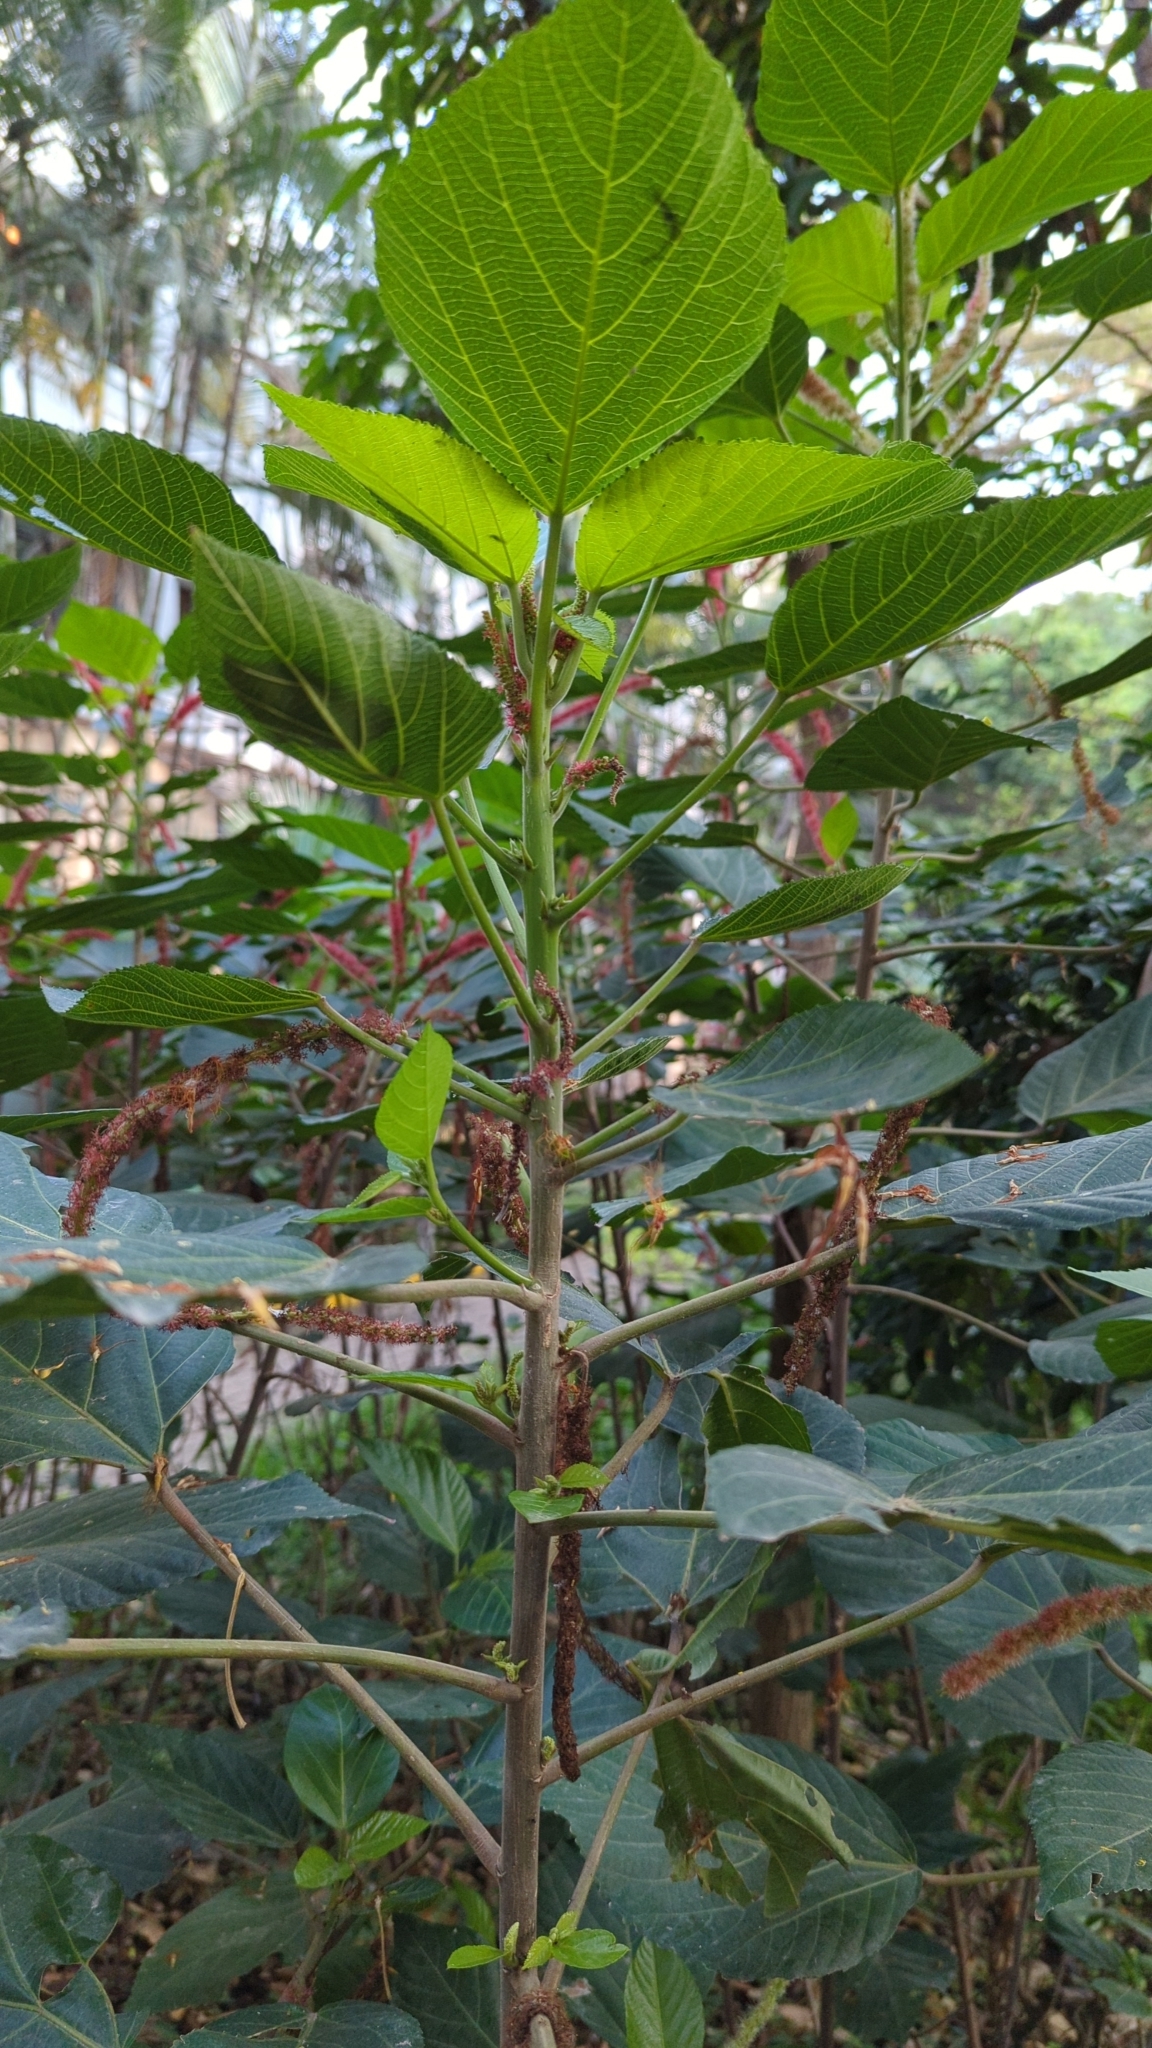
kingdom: Plantae
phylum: Tracheophyta
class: Magnoliopsida
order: Malpighiales
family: Euphorbiaceae
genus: Acalypha
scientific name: Acalypha hispida
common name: Chenilleplant
